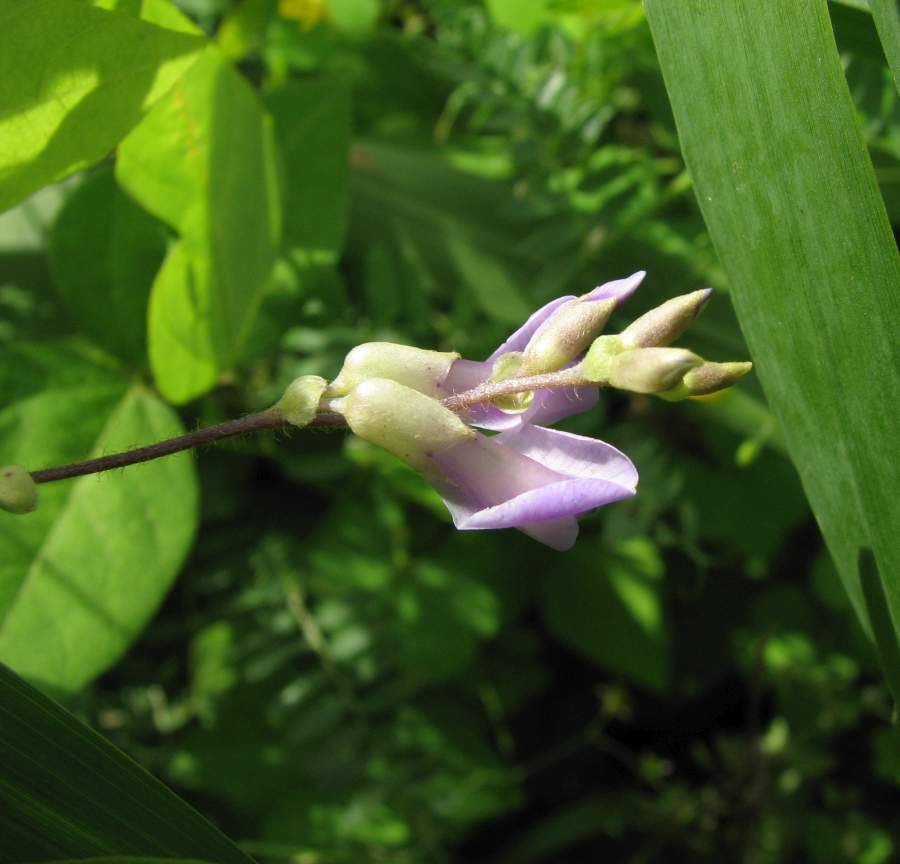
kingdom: Plantae
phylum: Tracheophyta
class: Magnoliopsida
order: Fabales
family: Fabaceae
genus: Amphicarpaea
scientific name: Amphicarpaea bracteata
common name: American hog peanut
